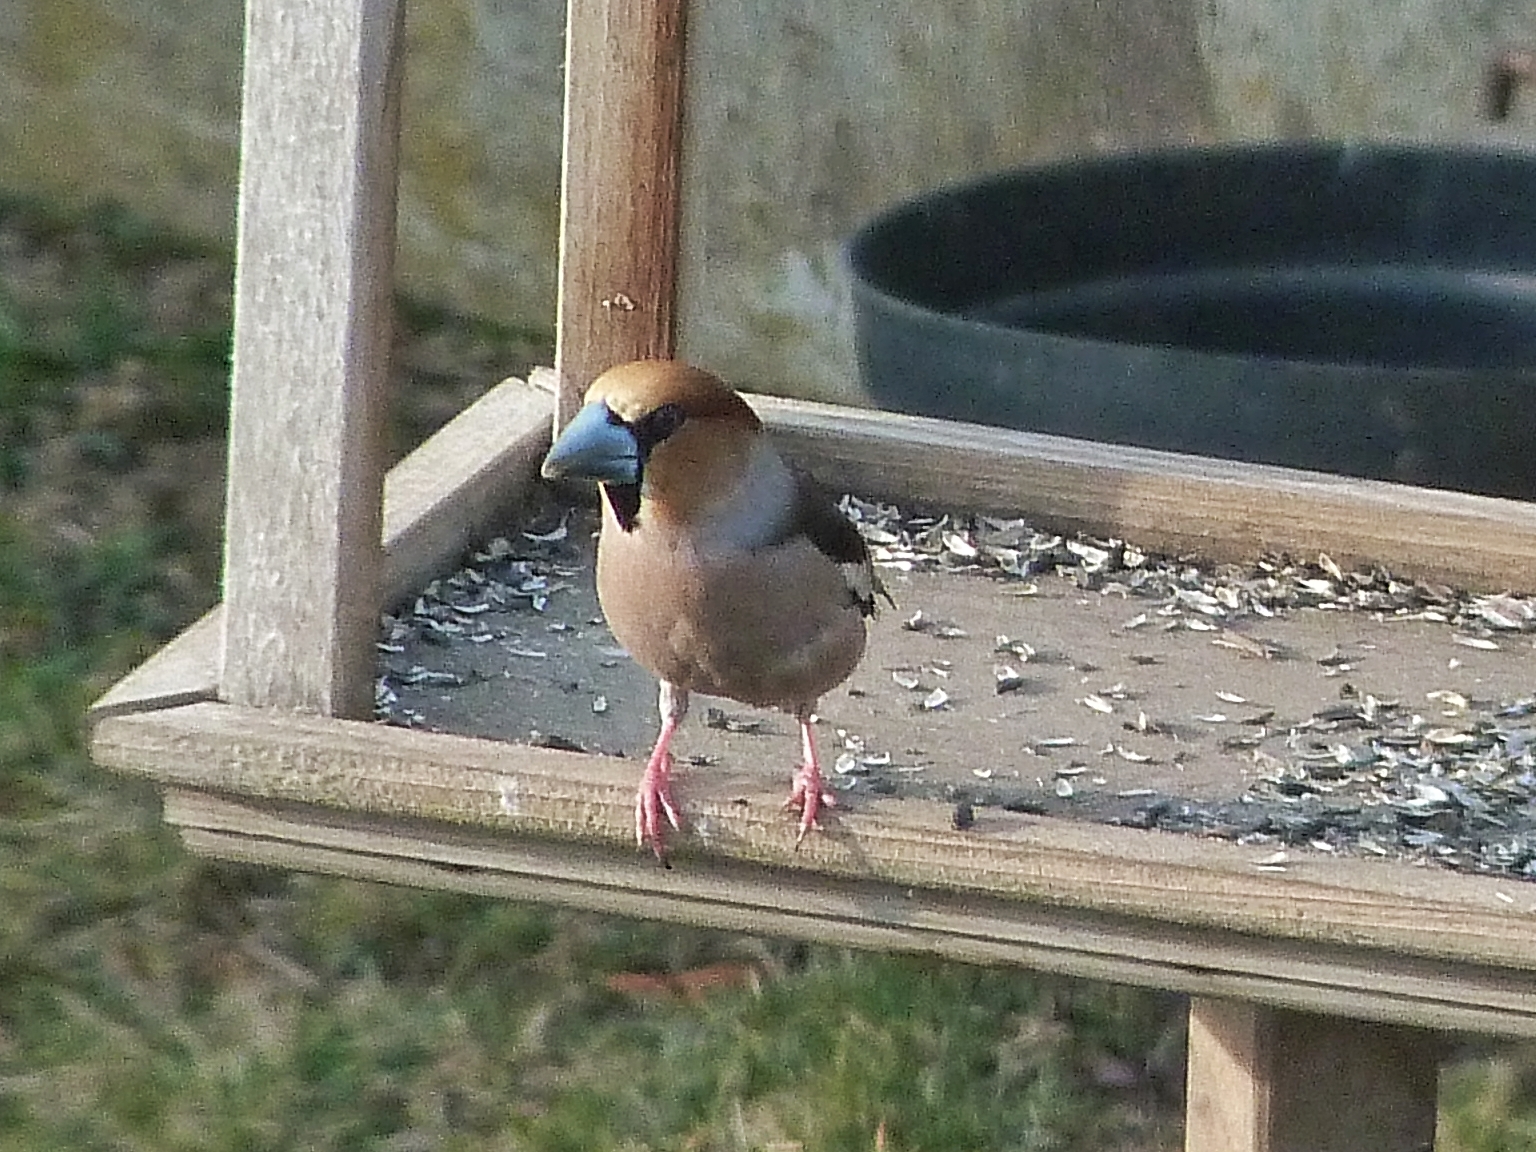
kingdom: Animalia
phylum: Chordata
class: Aves
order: Passeriformes
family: Fringillidae
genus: Coccothraustes
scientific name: Coccothraustes coccothraustes
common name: Hawfinch
